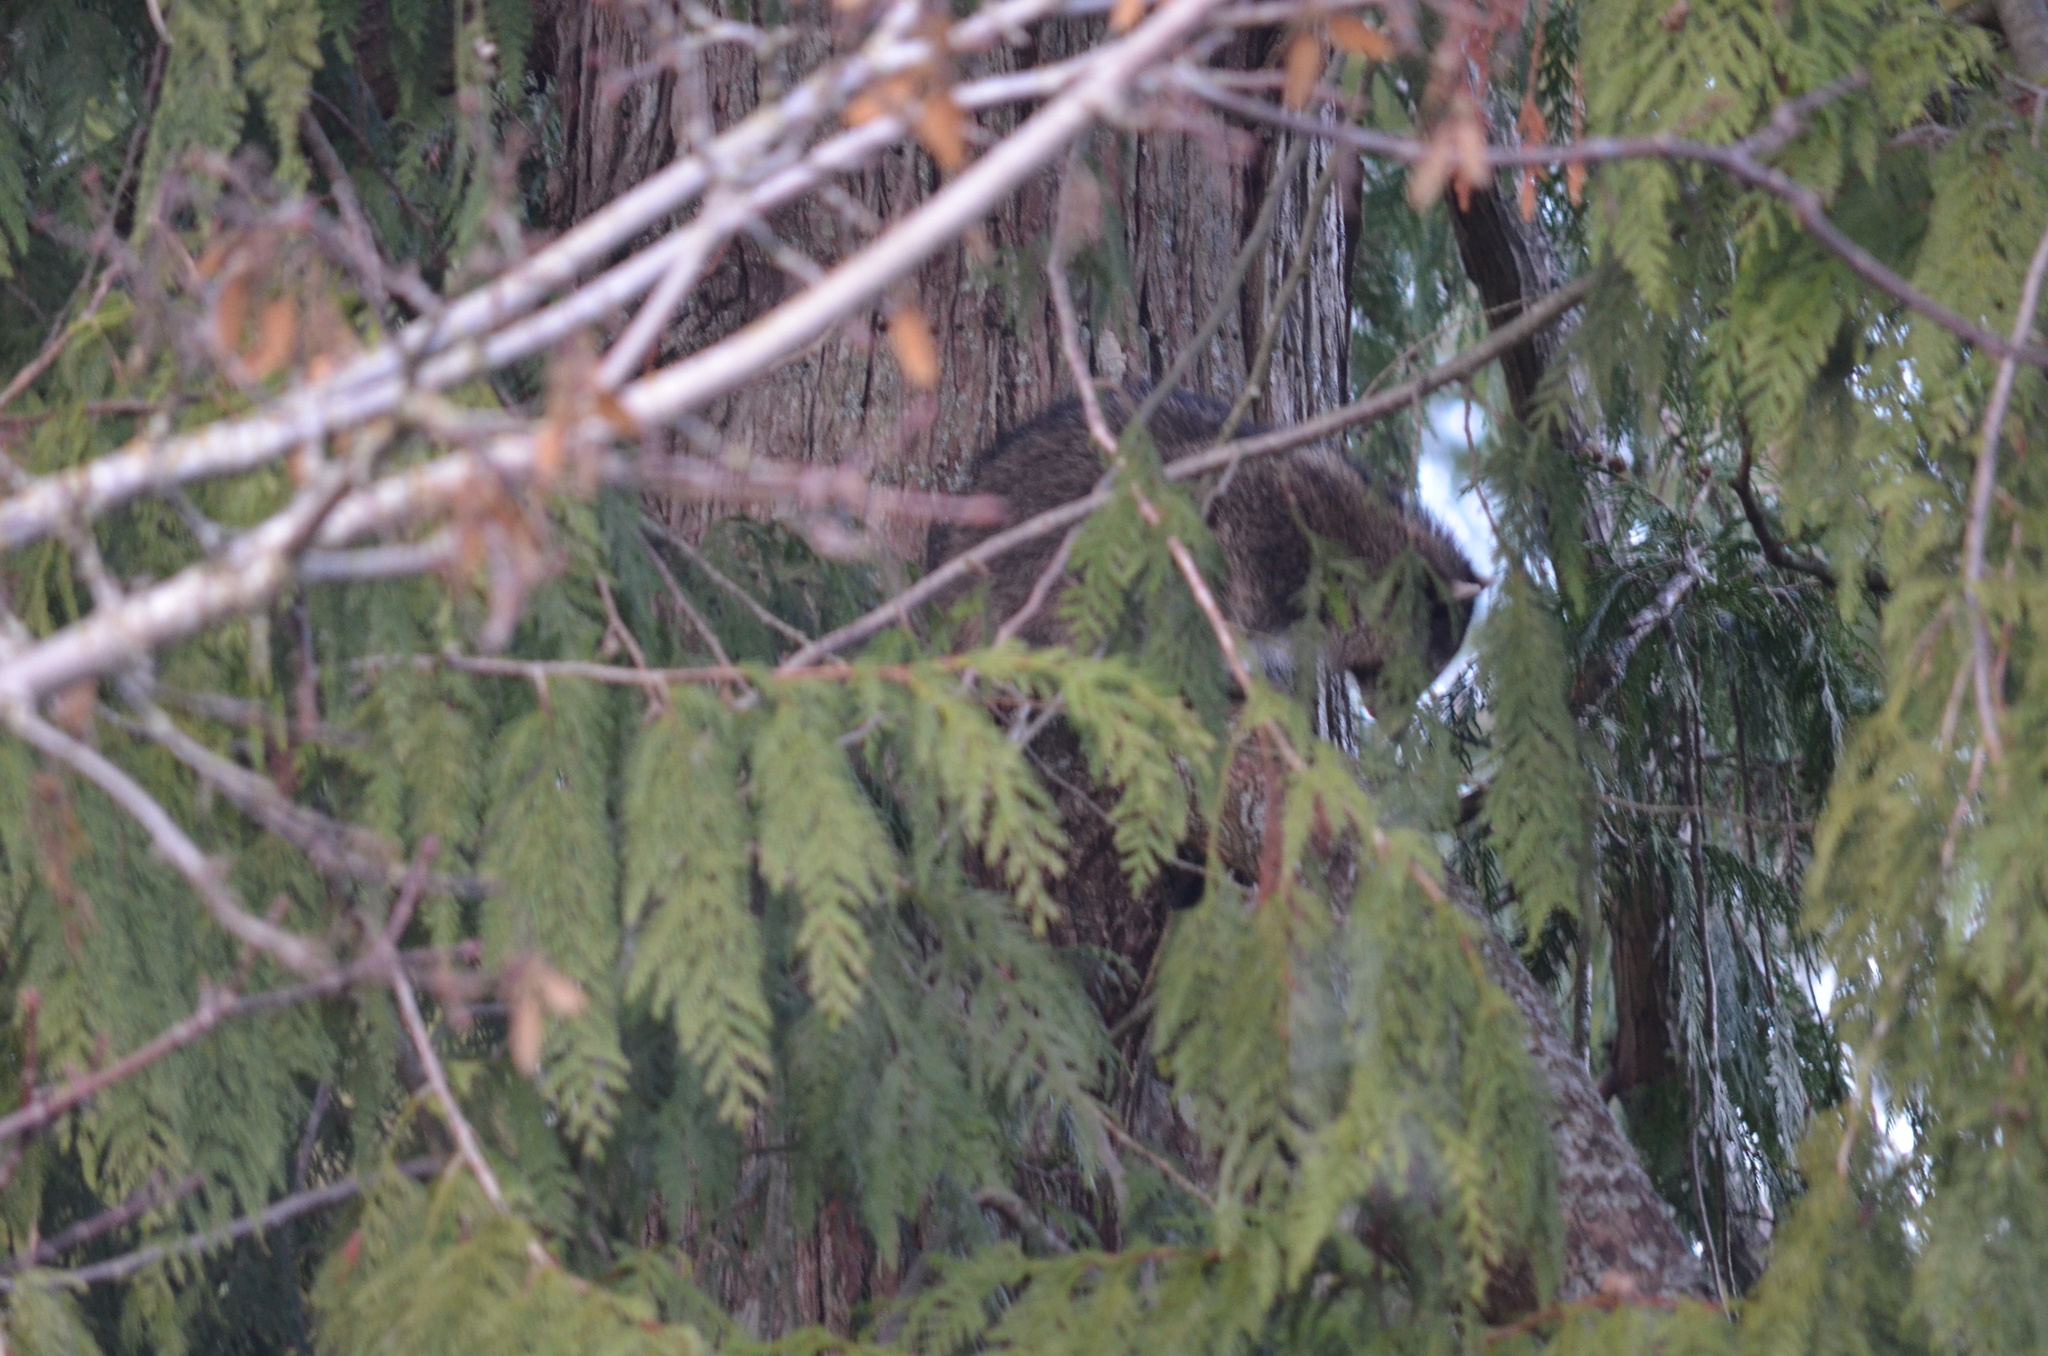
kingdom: Animalia
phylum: Chordata
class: Mammalia
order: Carnivora
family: Procyonidae
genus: Procyon
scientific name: Procyon lotor
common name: Raccoon
